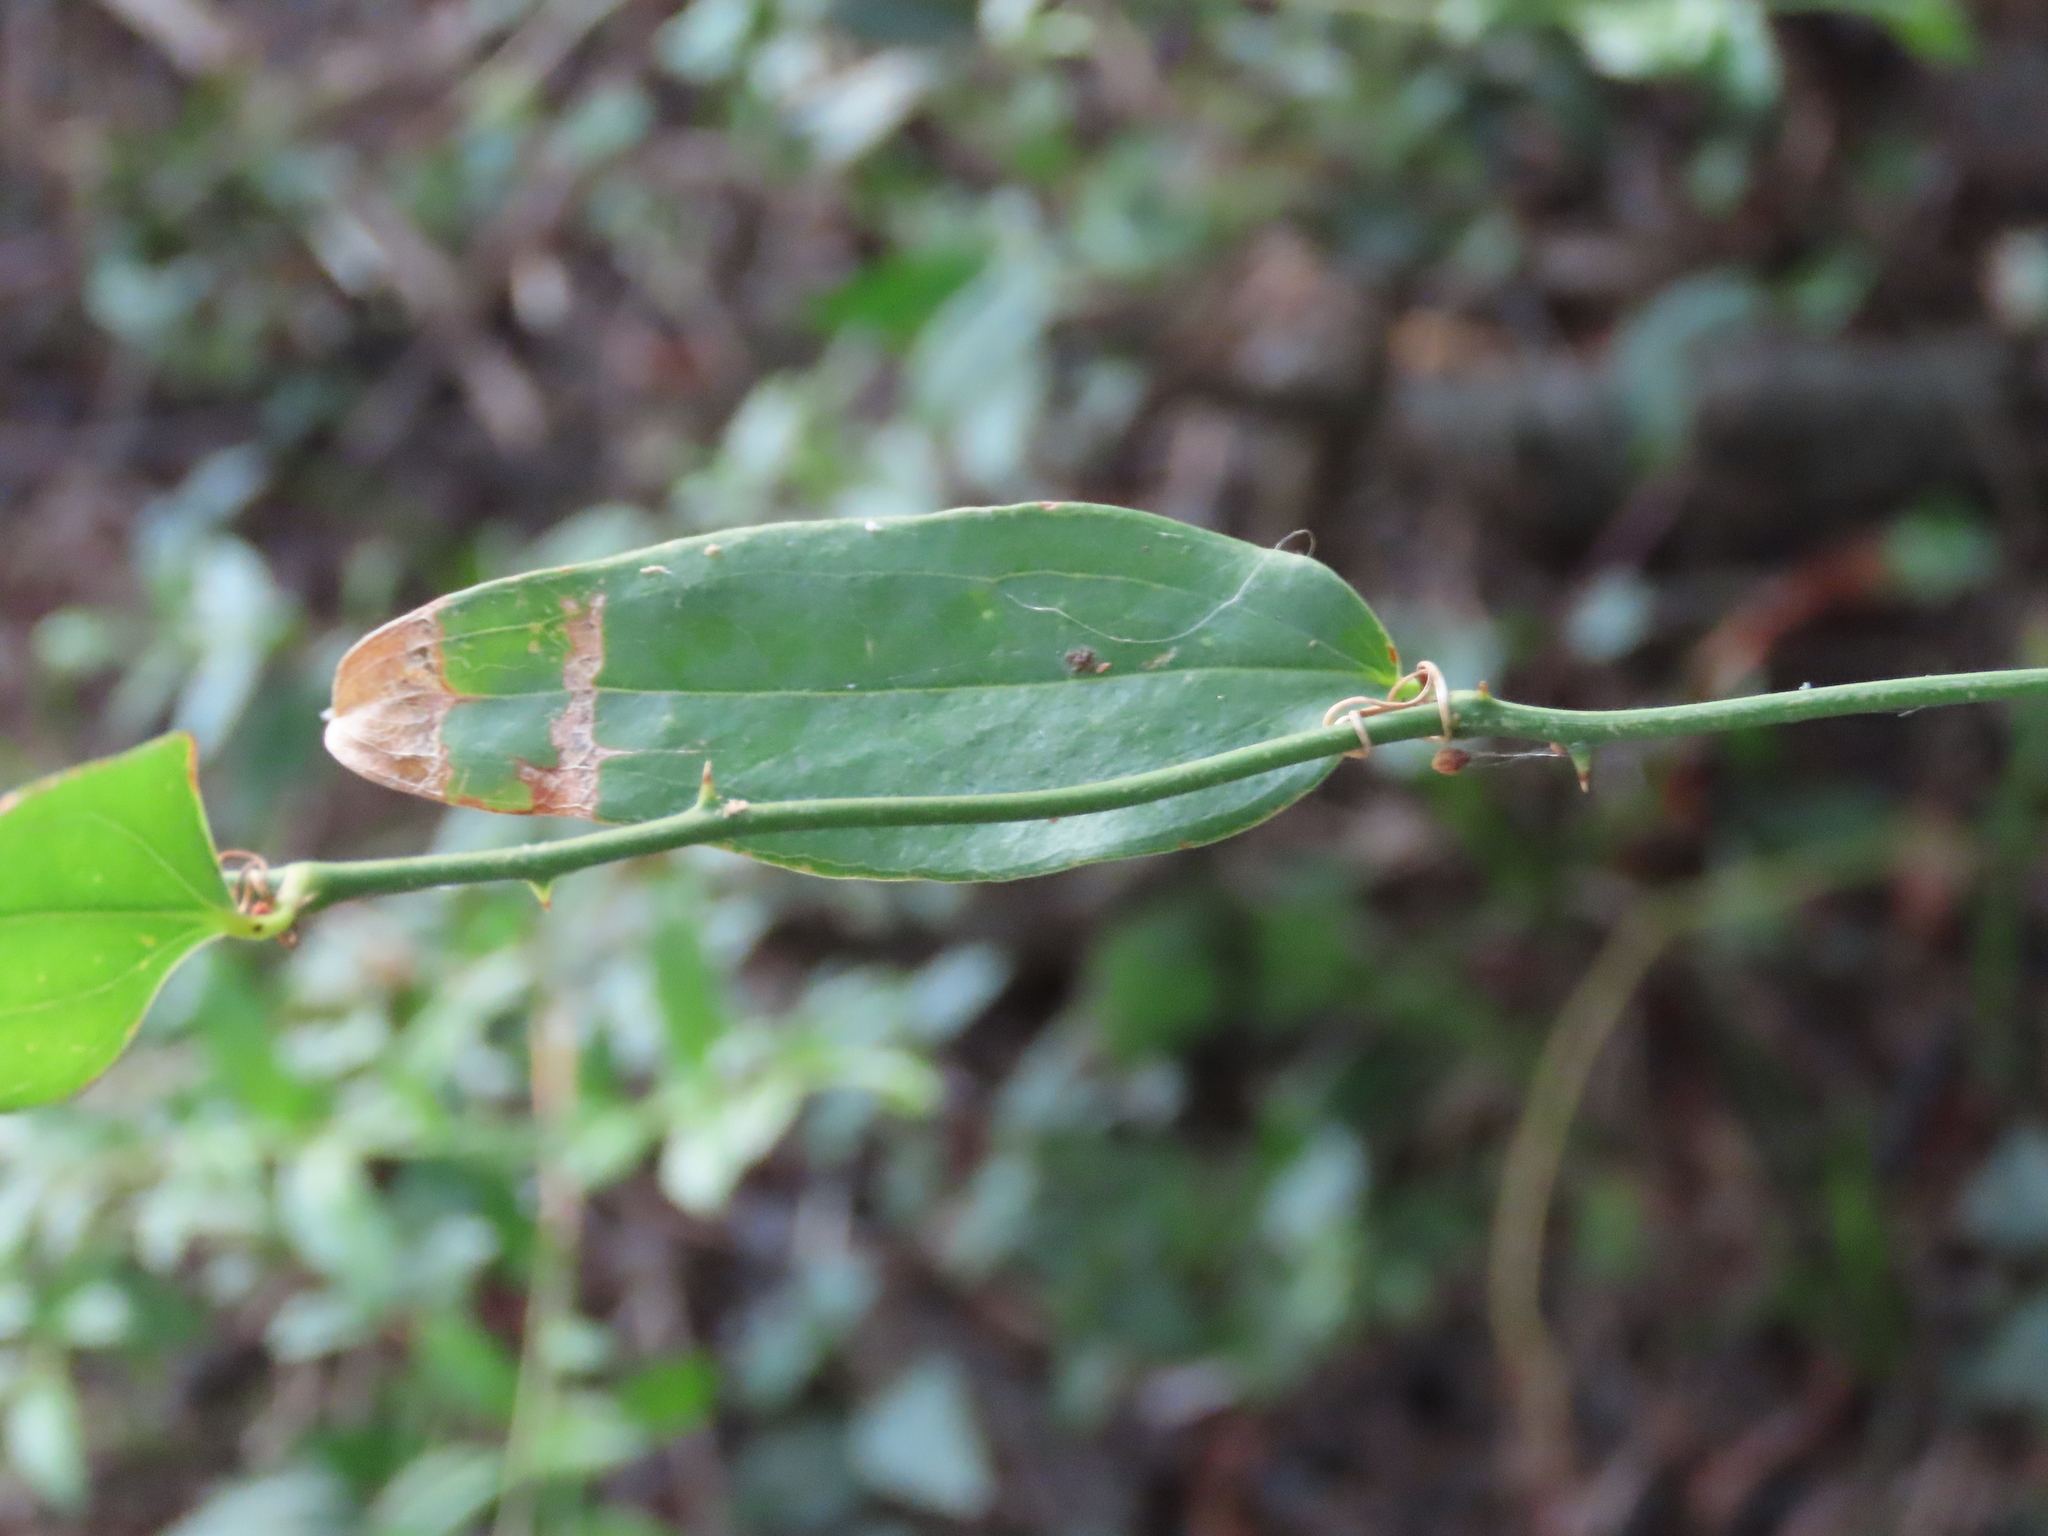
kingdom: Plantae
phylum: Tracheophyta
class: Liliopsida
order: Liliales
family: Smilacaceae
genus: Smilax
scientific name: Smilax campestris
